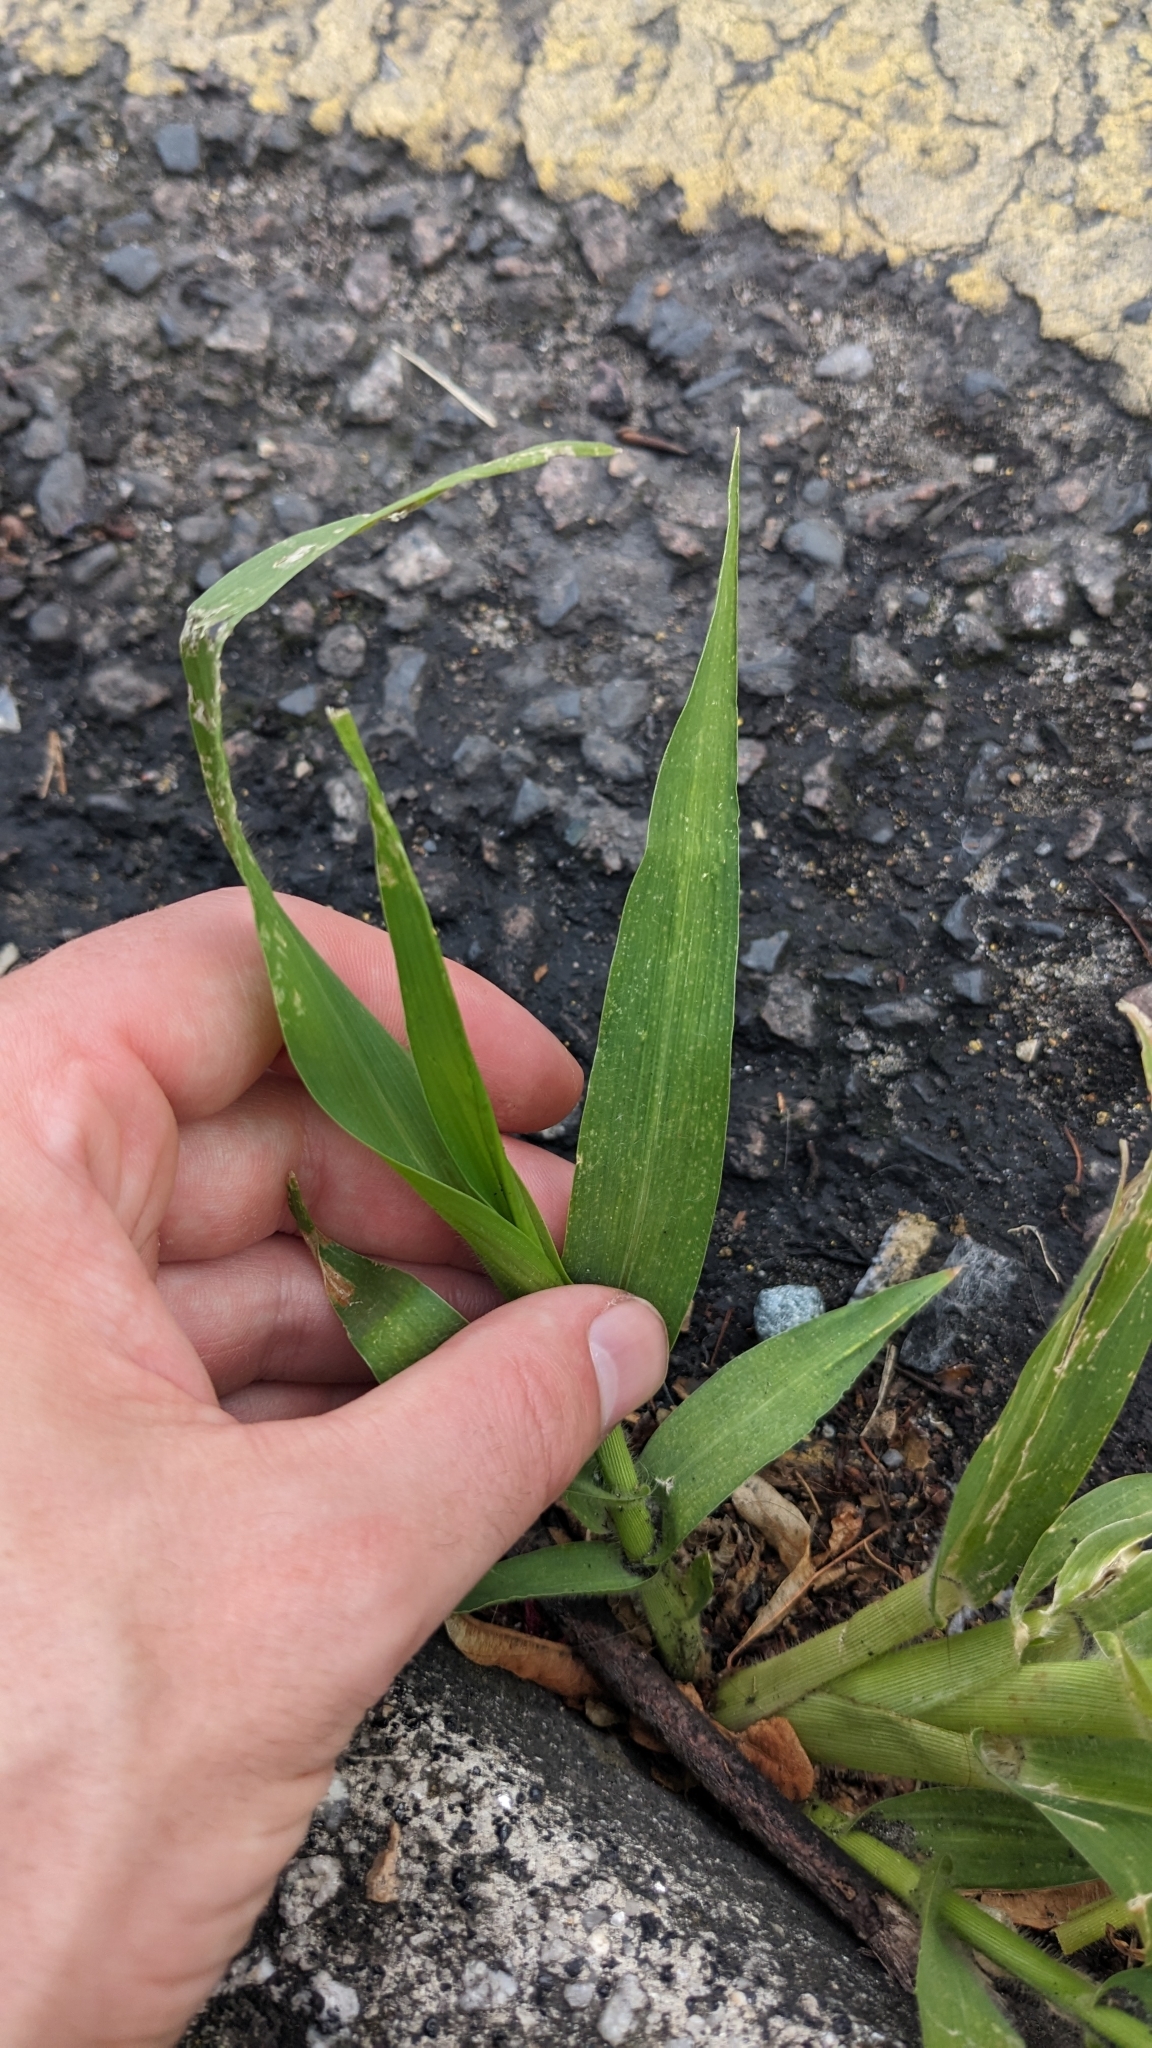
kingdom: Plantae
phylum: Tracheophyta
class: Liliopsida
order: Poales
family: Poaceae
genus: Panicum
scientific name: Panicum miliaceum
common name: Common millet
